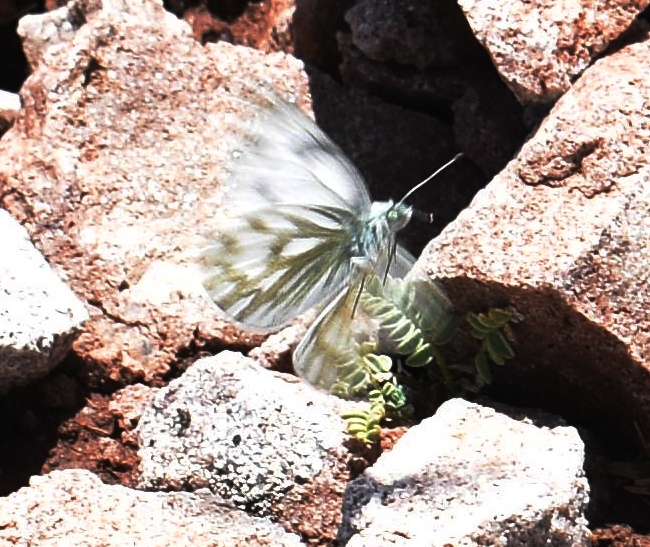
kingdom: Animalia
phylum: Arthropoda
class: Insecta
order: Lepidoptera
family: Pieridae
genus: Pontia
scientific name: Pontia occidentalis
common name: Western white
